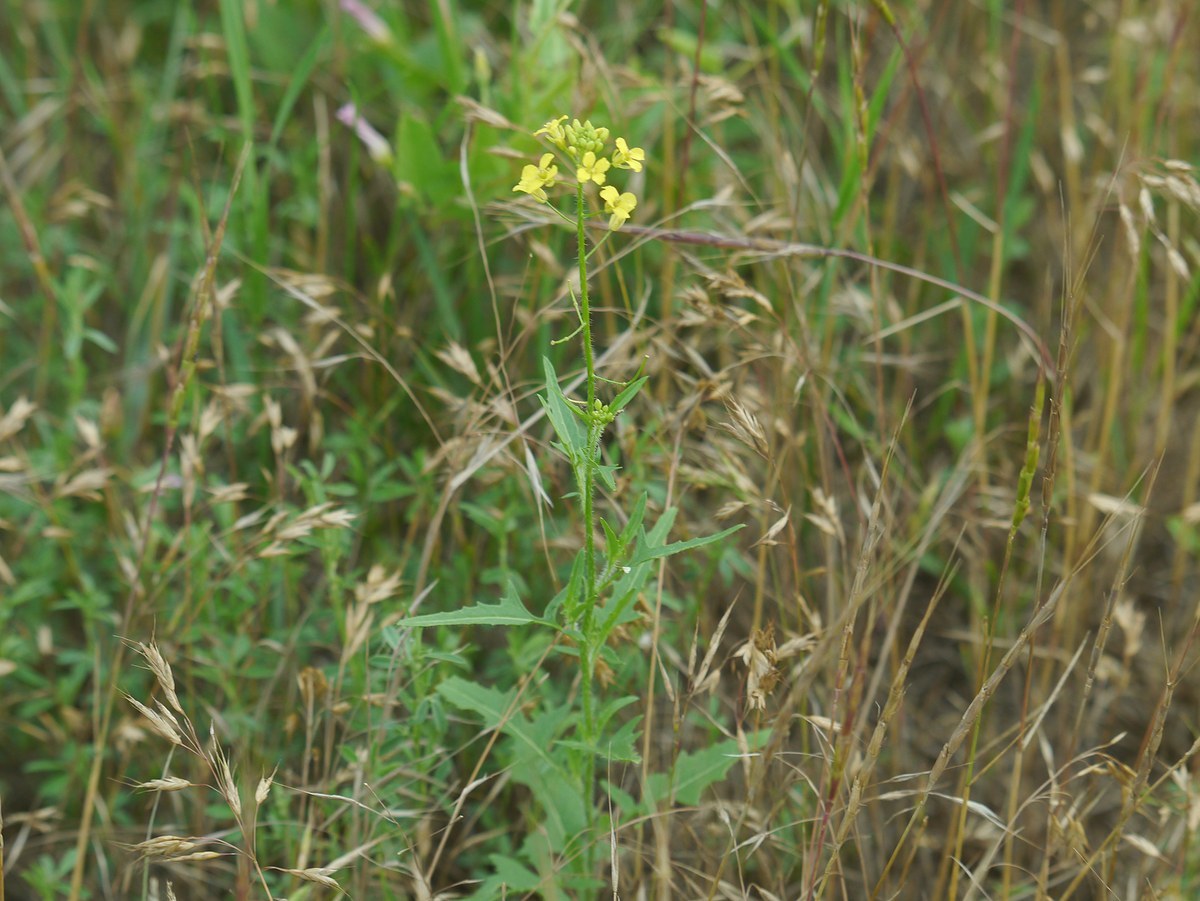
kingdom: Plantae
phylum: Tracheophyta
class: Magnoliopsida
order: Brassicales
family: Brassicaceae
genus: Sisymbrium
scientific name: Sisymbrium loeselii
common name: False london-rocket
